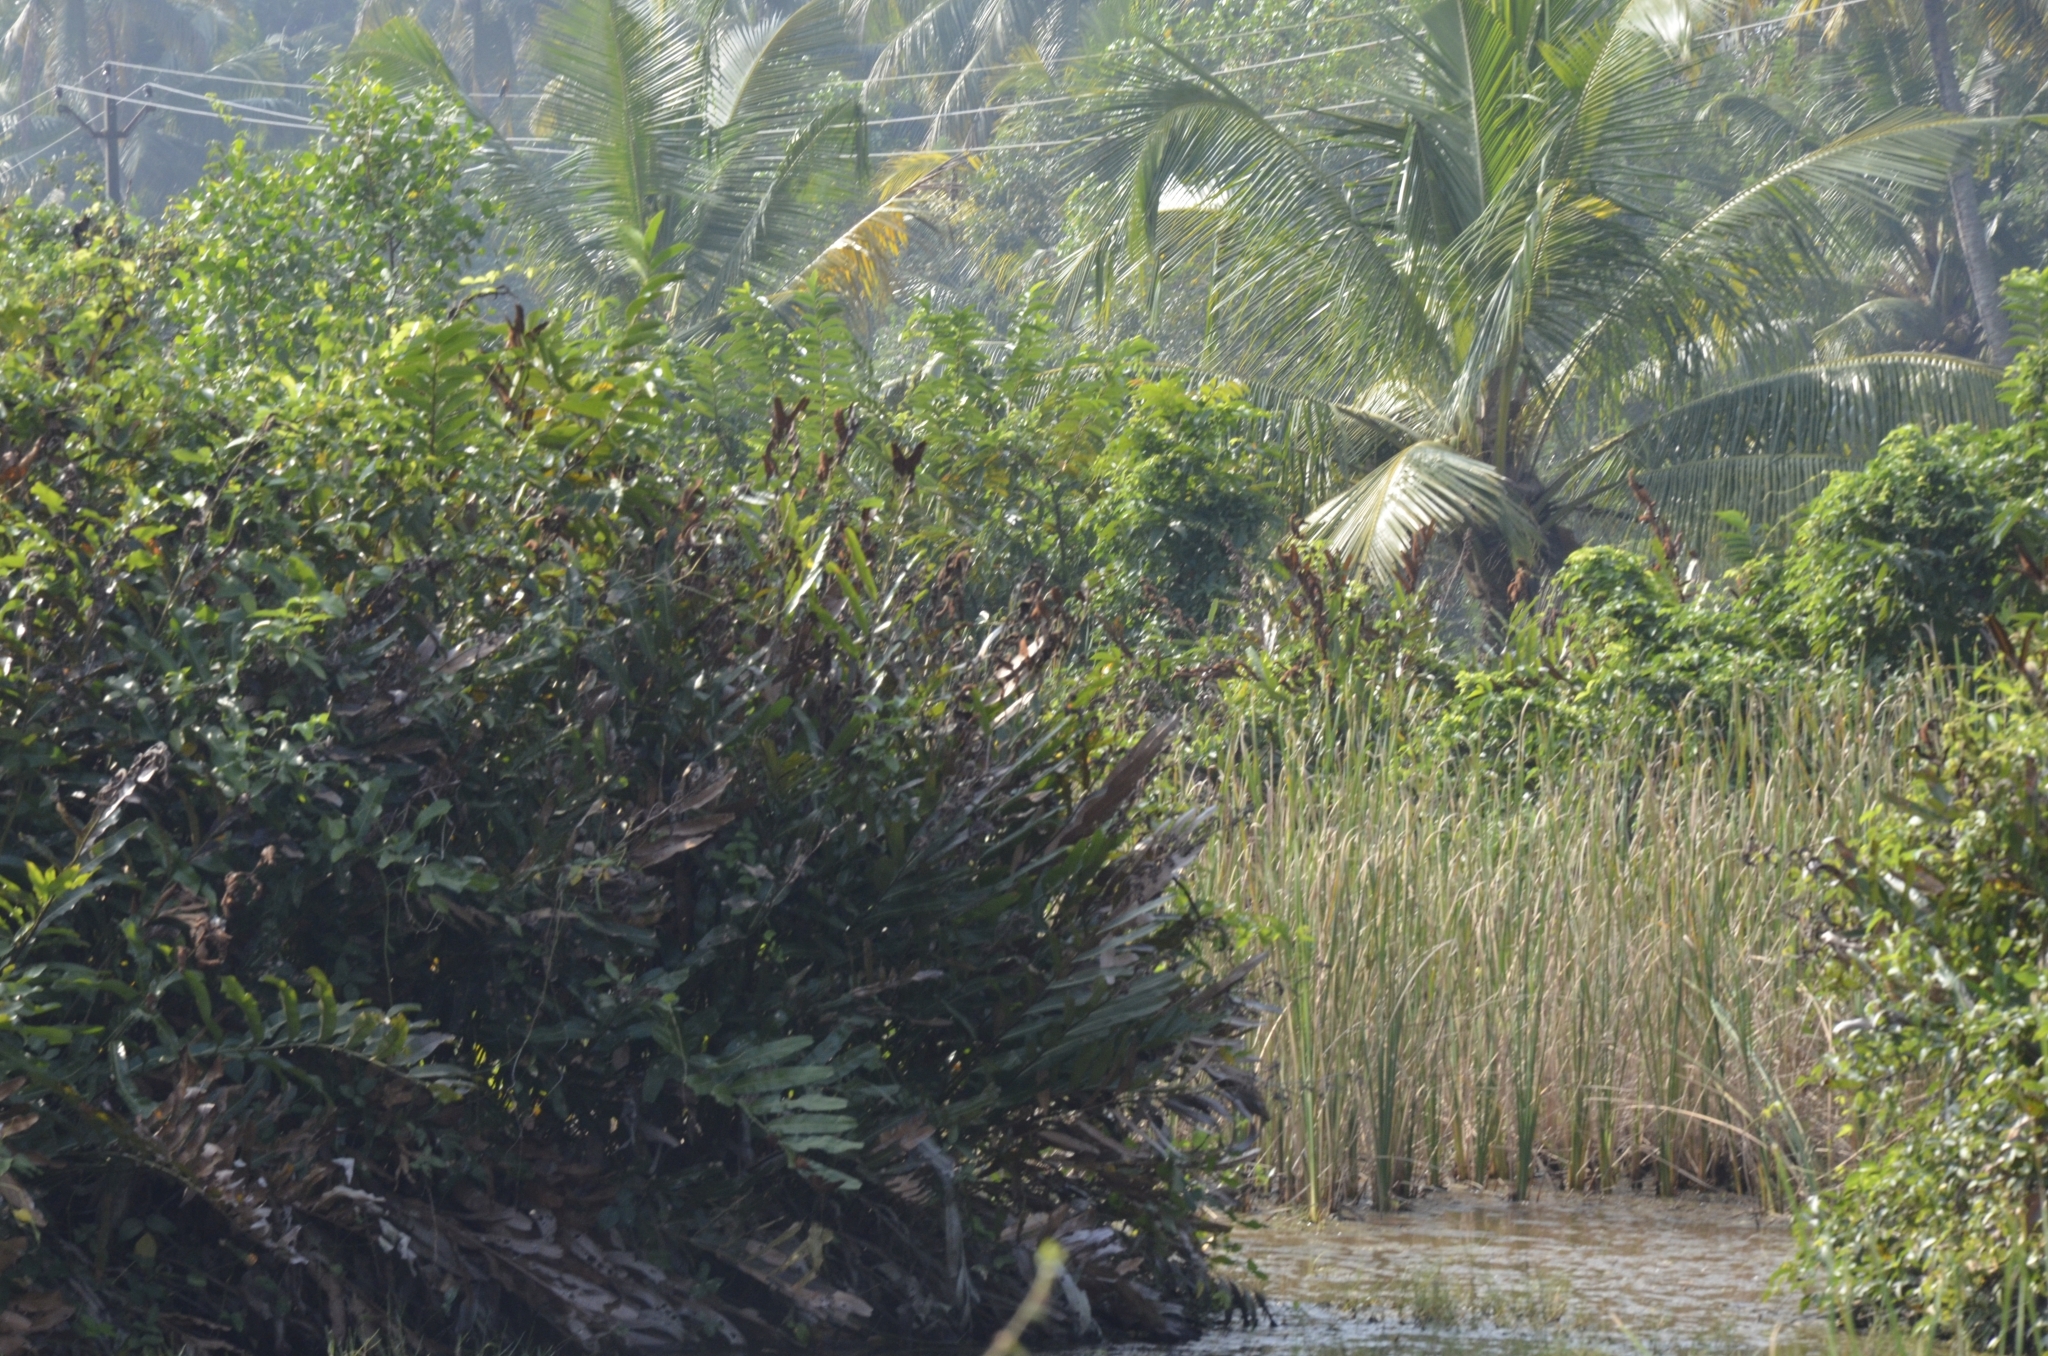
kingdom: Animalia
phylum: Chordata
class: Aves
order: Pelecaniformes
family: Ardeidae
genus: Ixobrychus
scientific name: Ixobrychus cinnamomeus
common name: Cinnamon bittern
